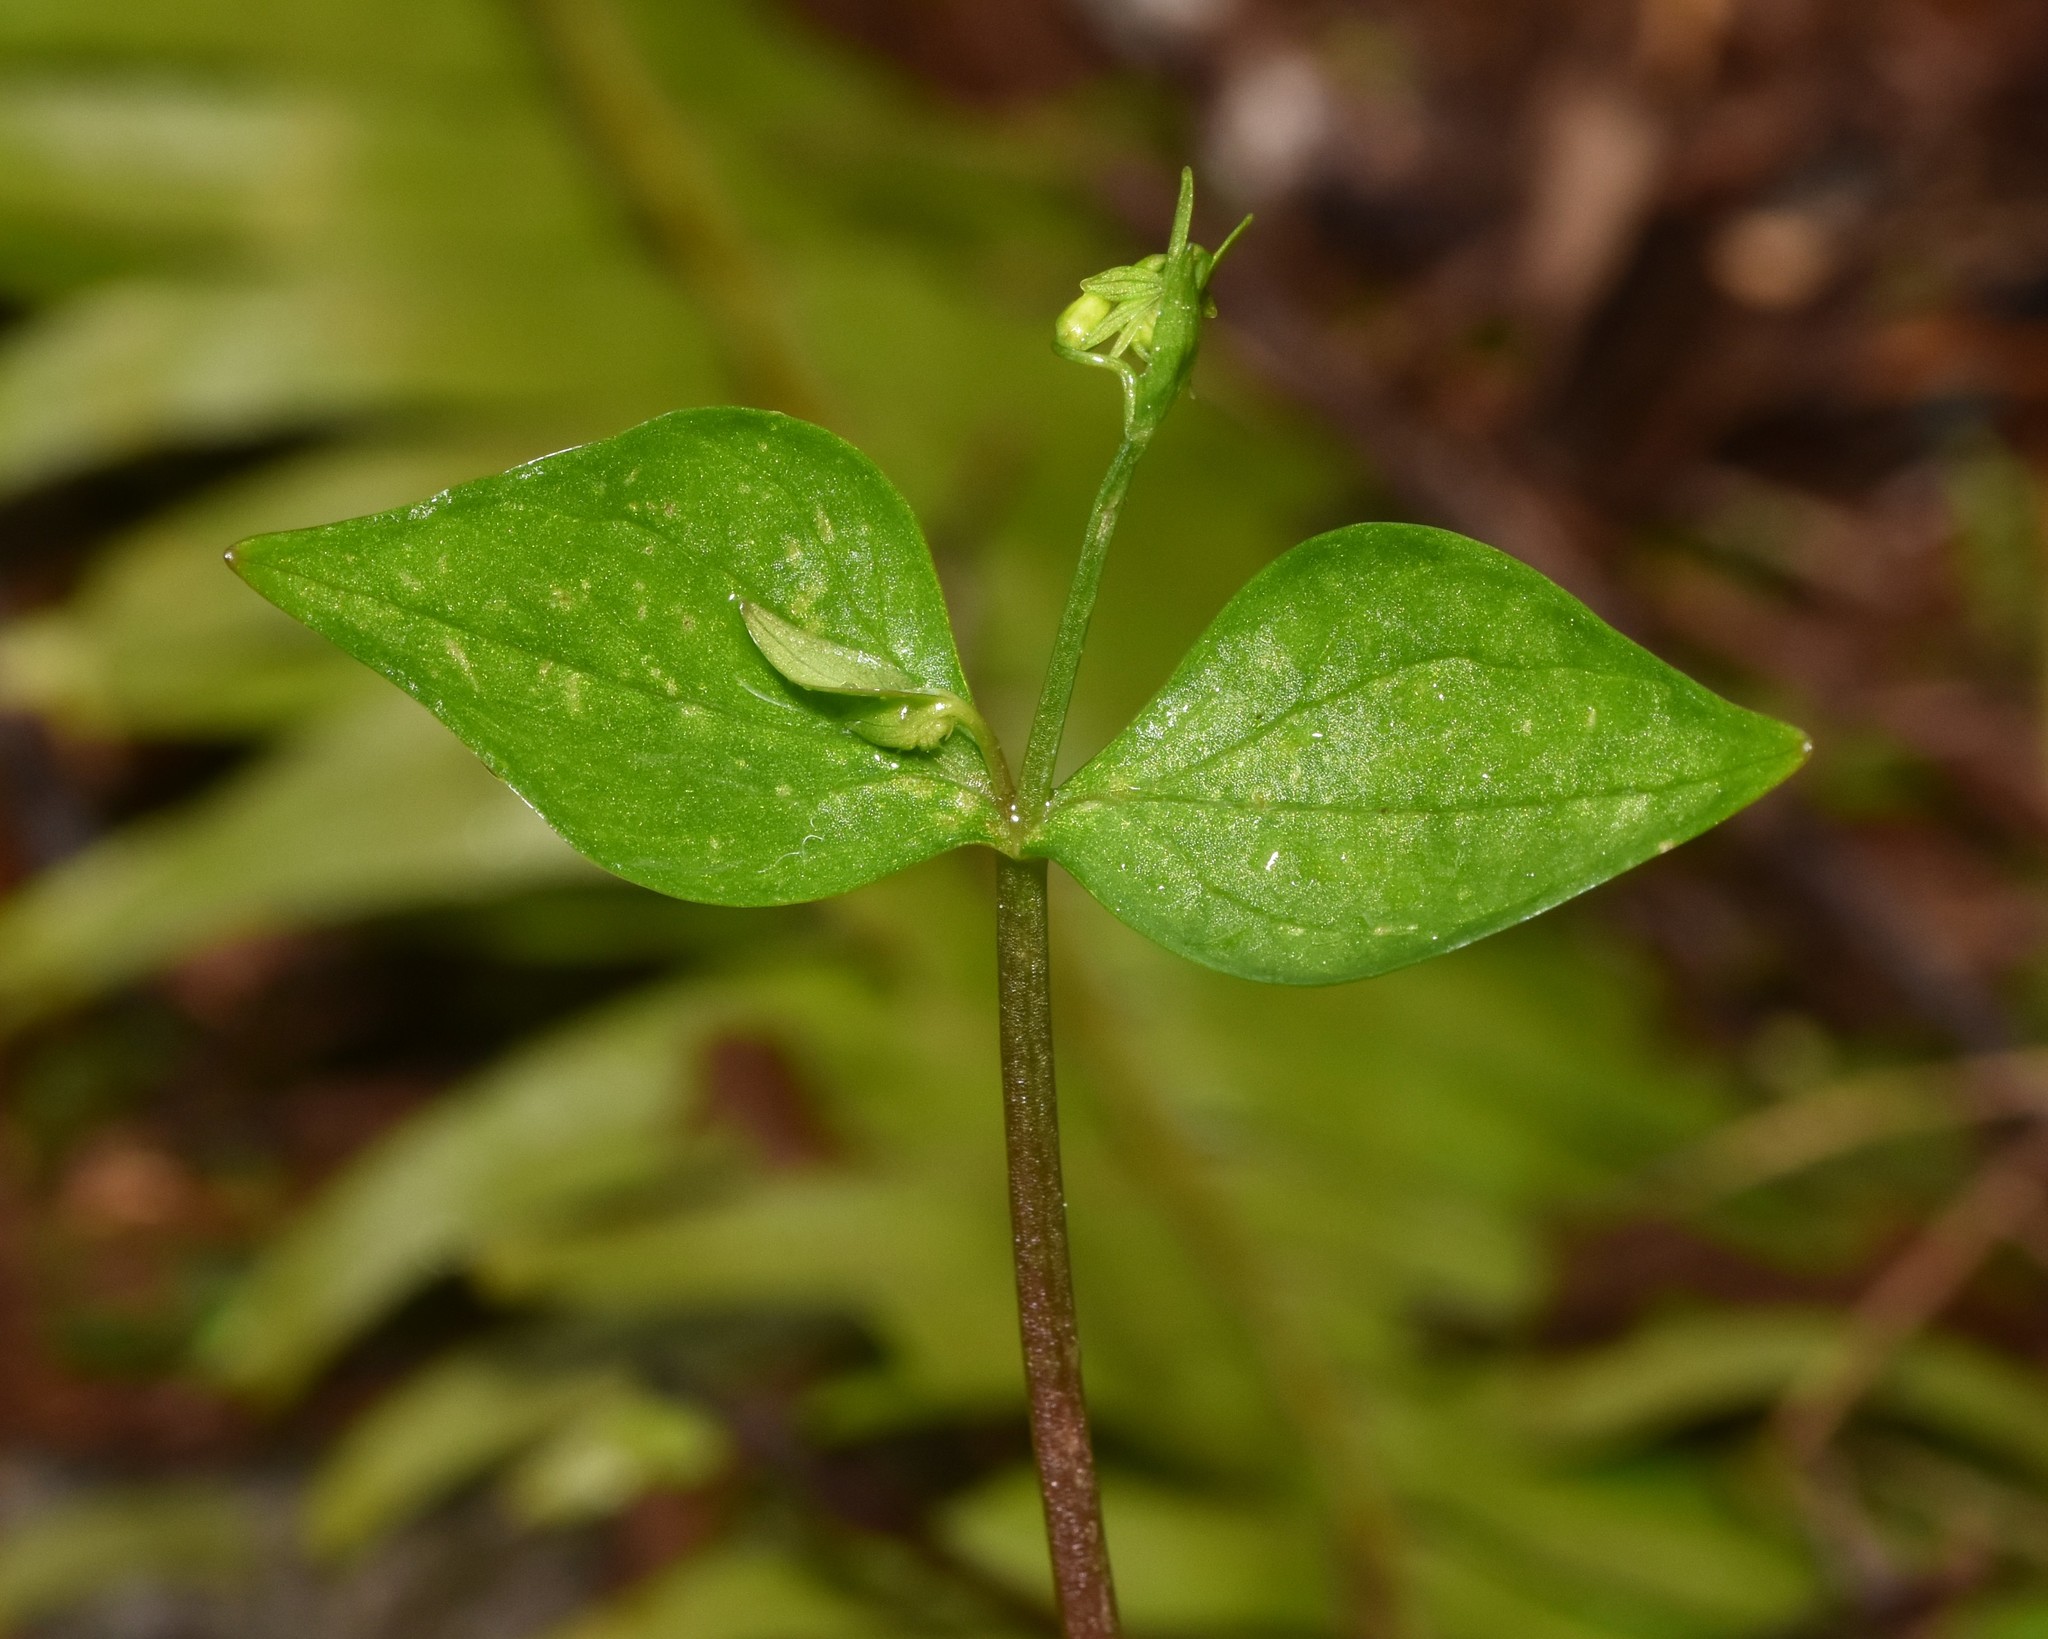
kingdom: Plantae
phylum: Tracheophyta
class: Magnoliopsida
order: Caryophyllales
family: Montiaceae
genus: Claytonia
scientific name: Claytonia sibirica
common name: Pink purslane
